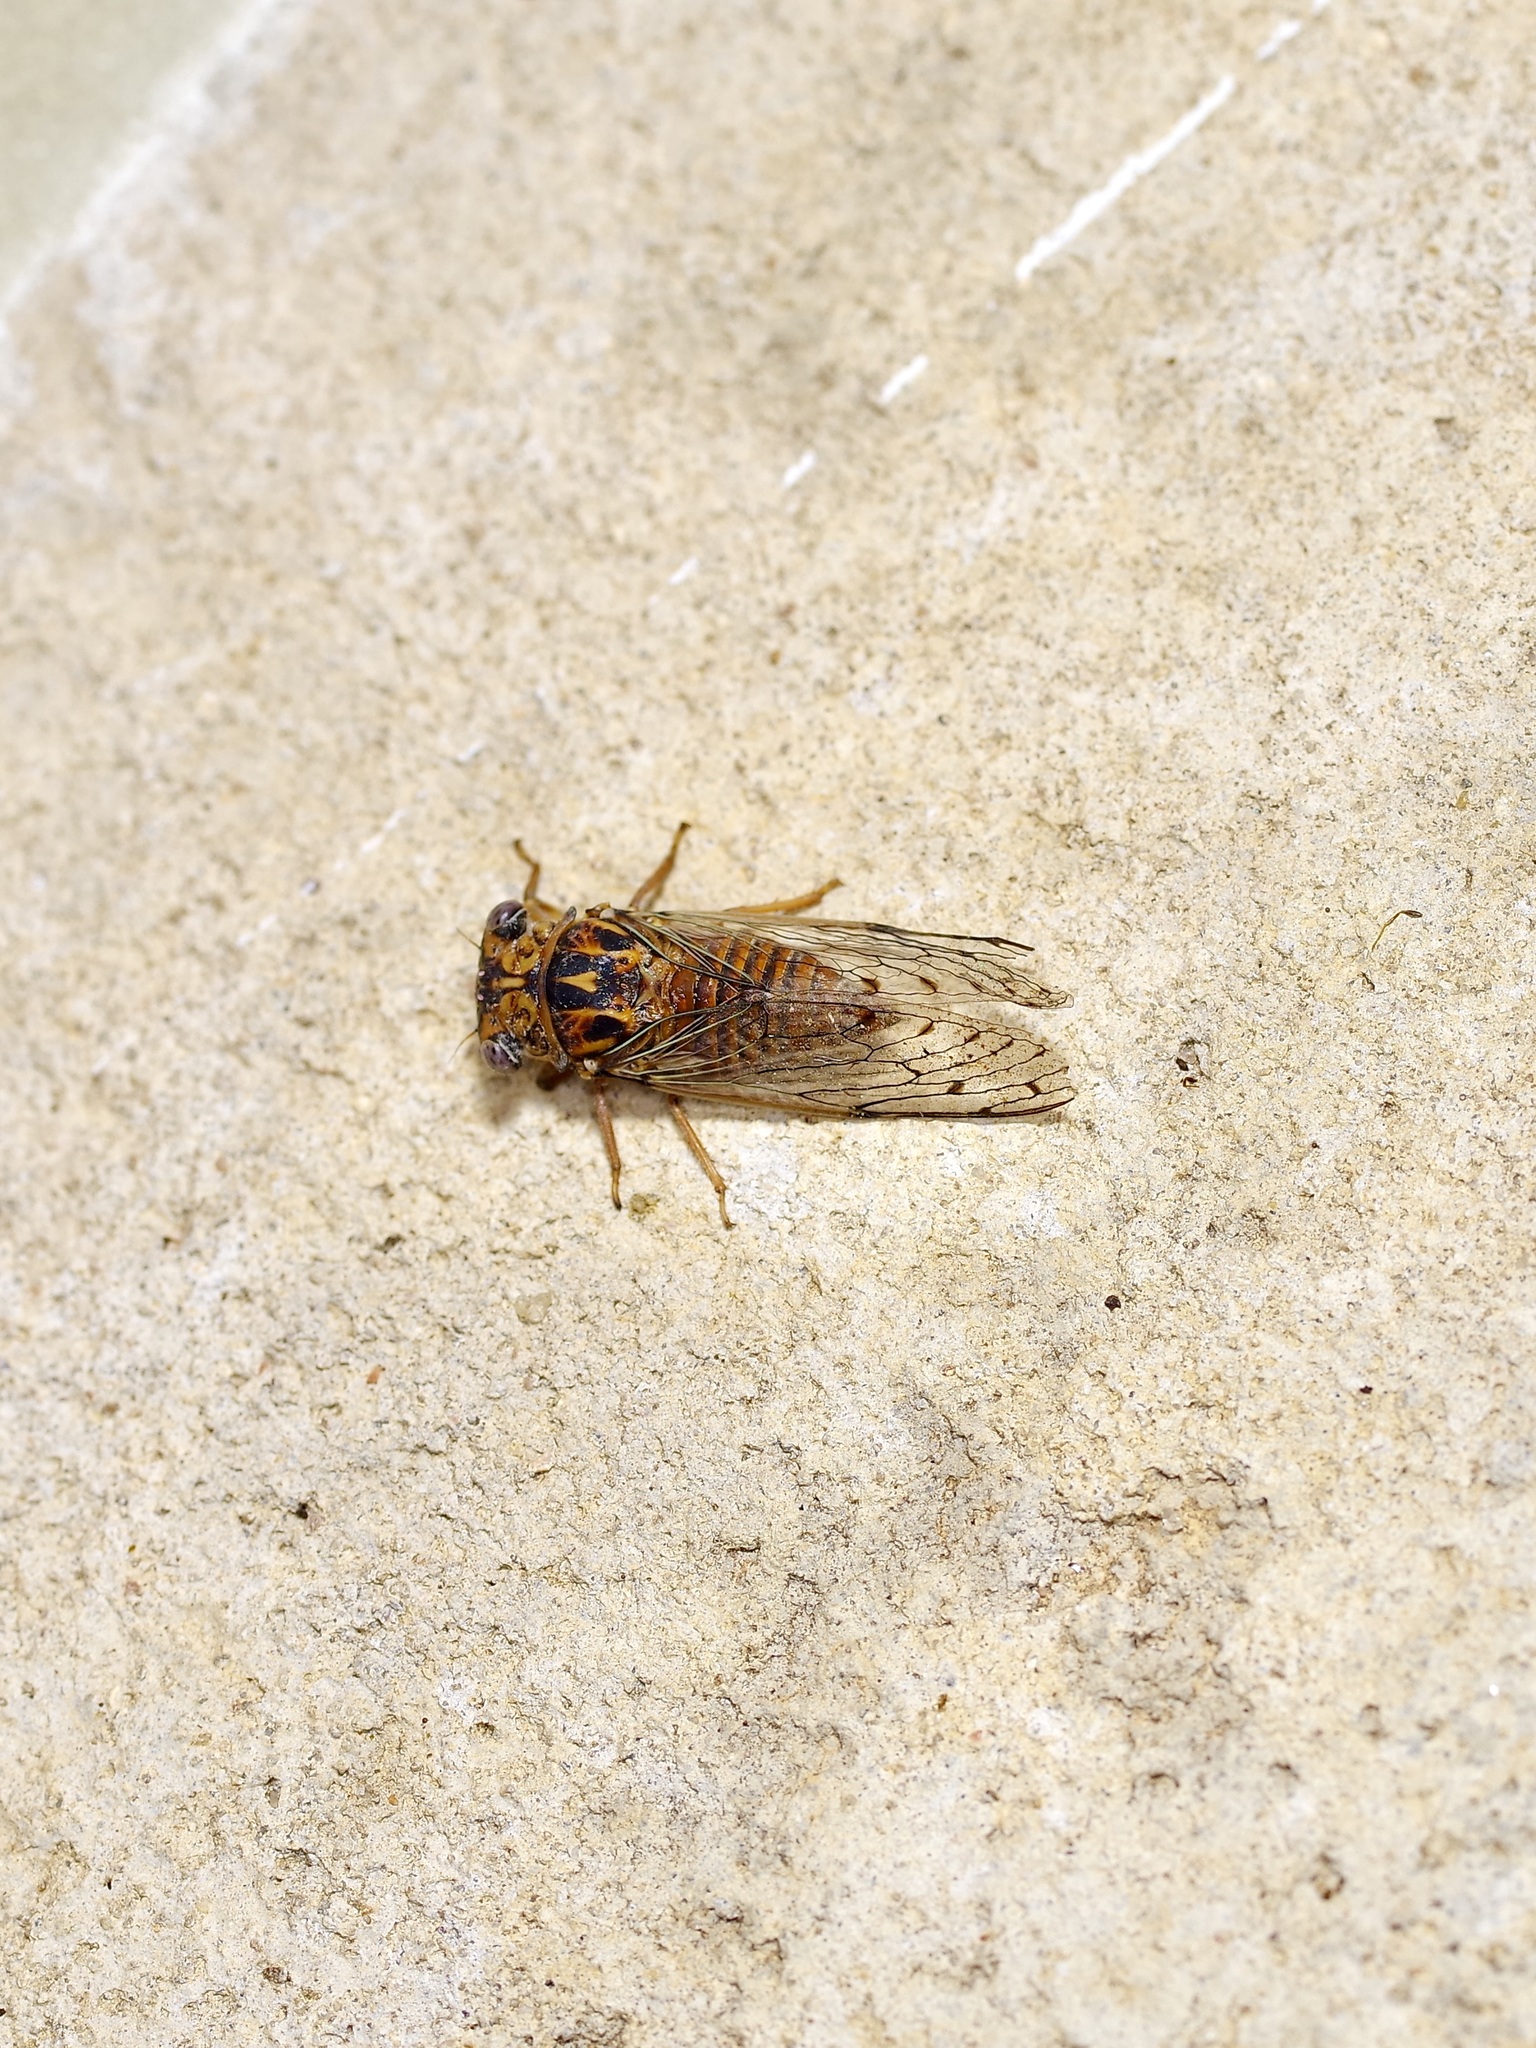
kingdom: Animalia
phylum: Arthropoda
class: Insecta
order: Hemiptera
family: Cicadidae
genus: Pacarina
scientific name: Pacarina puella
